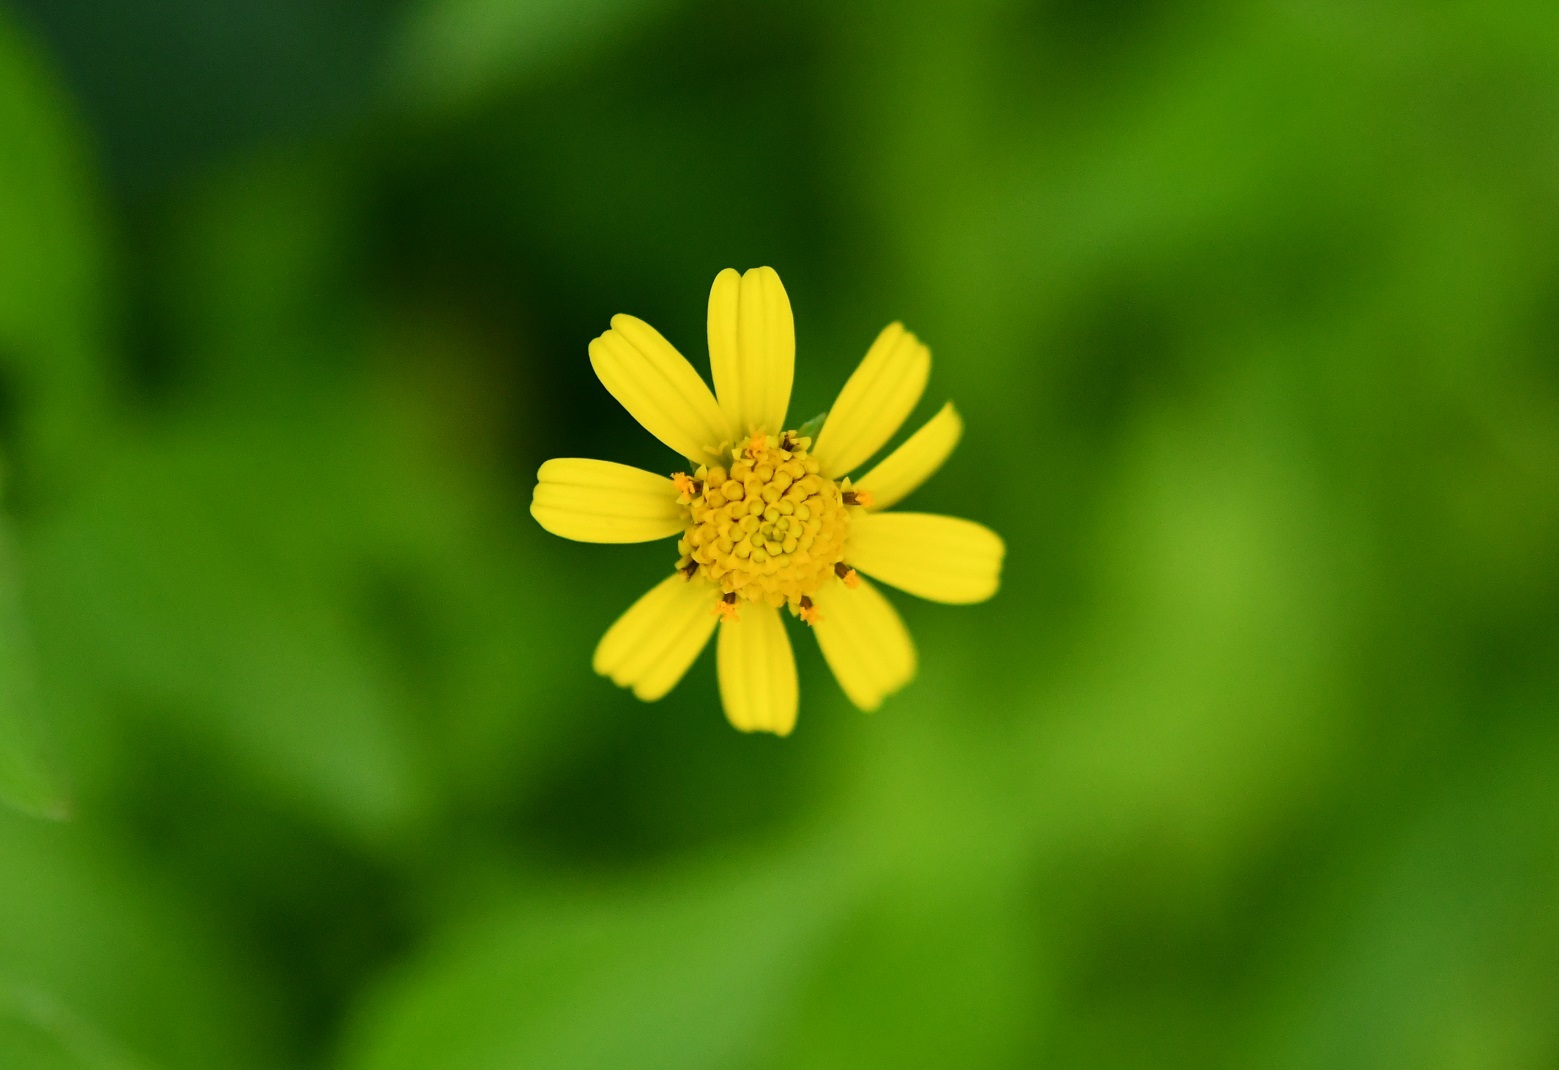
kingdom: Plantae
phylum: Tracheophyta
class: Magnoliopsida
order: Asterales
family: Asteraceae
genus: Acmella
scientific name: Acmella repens
